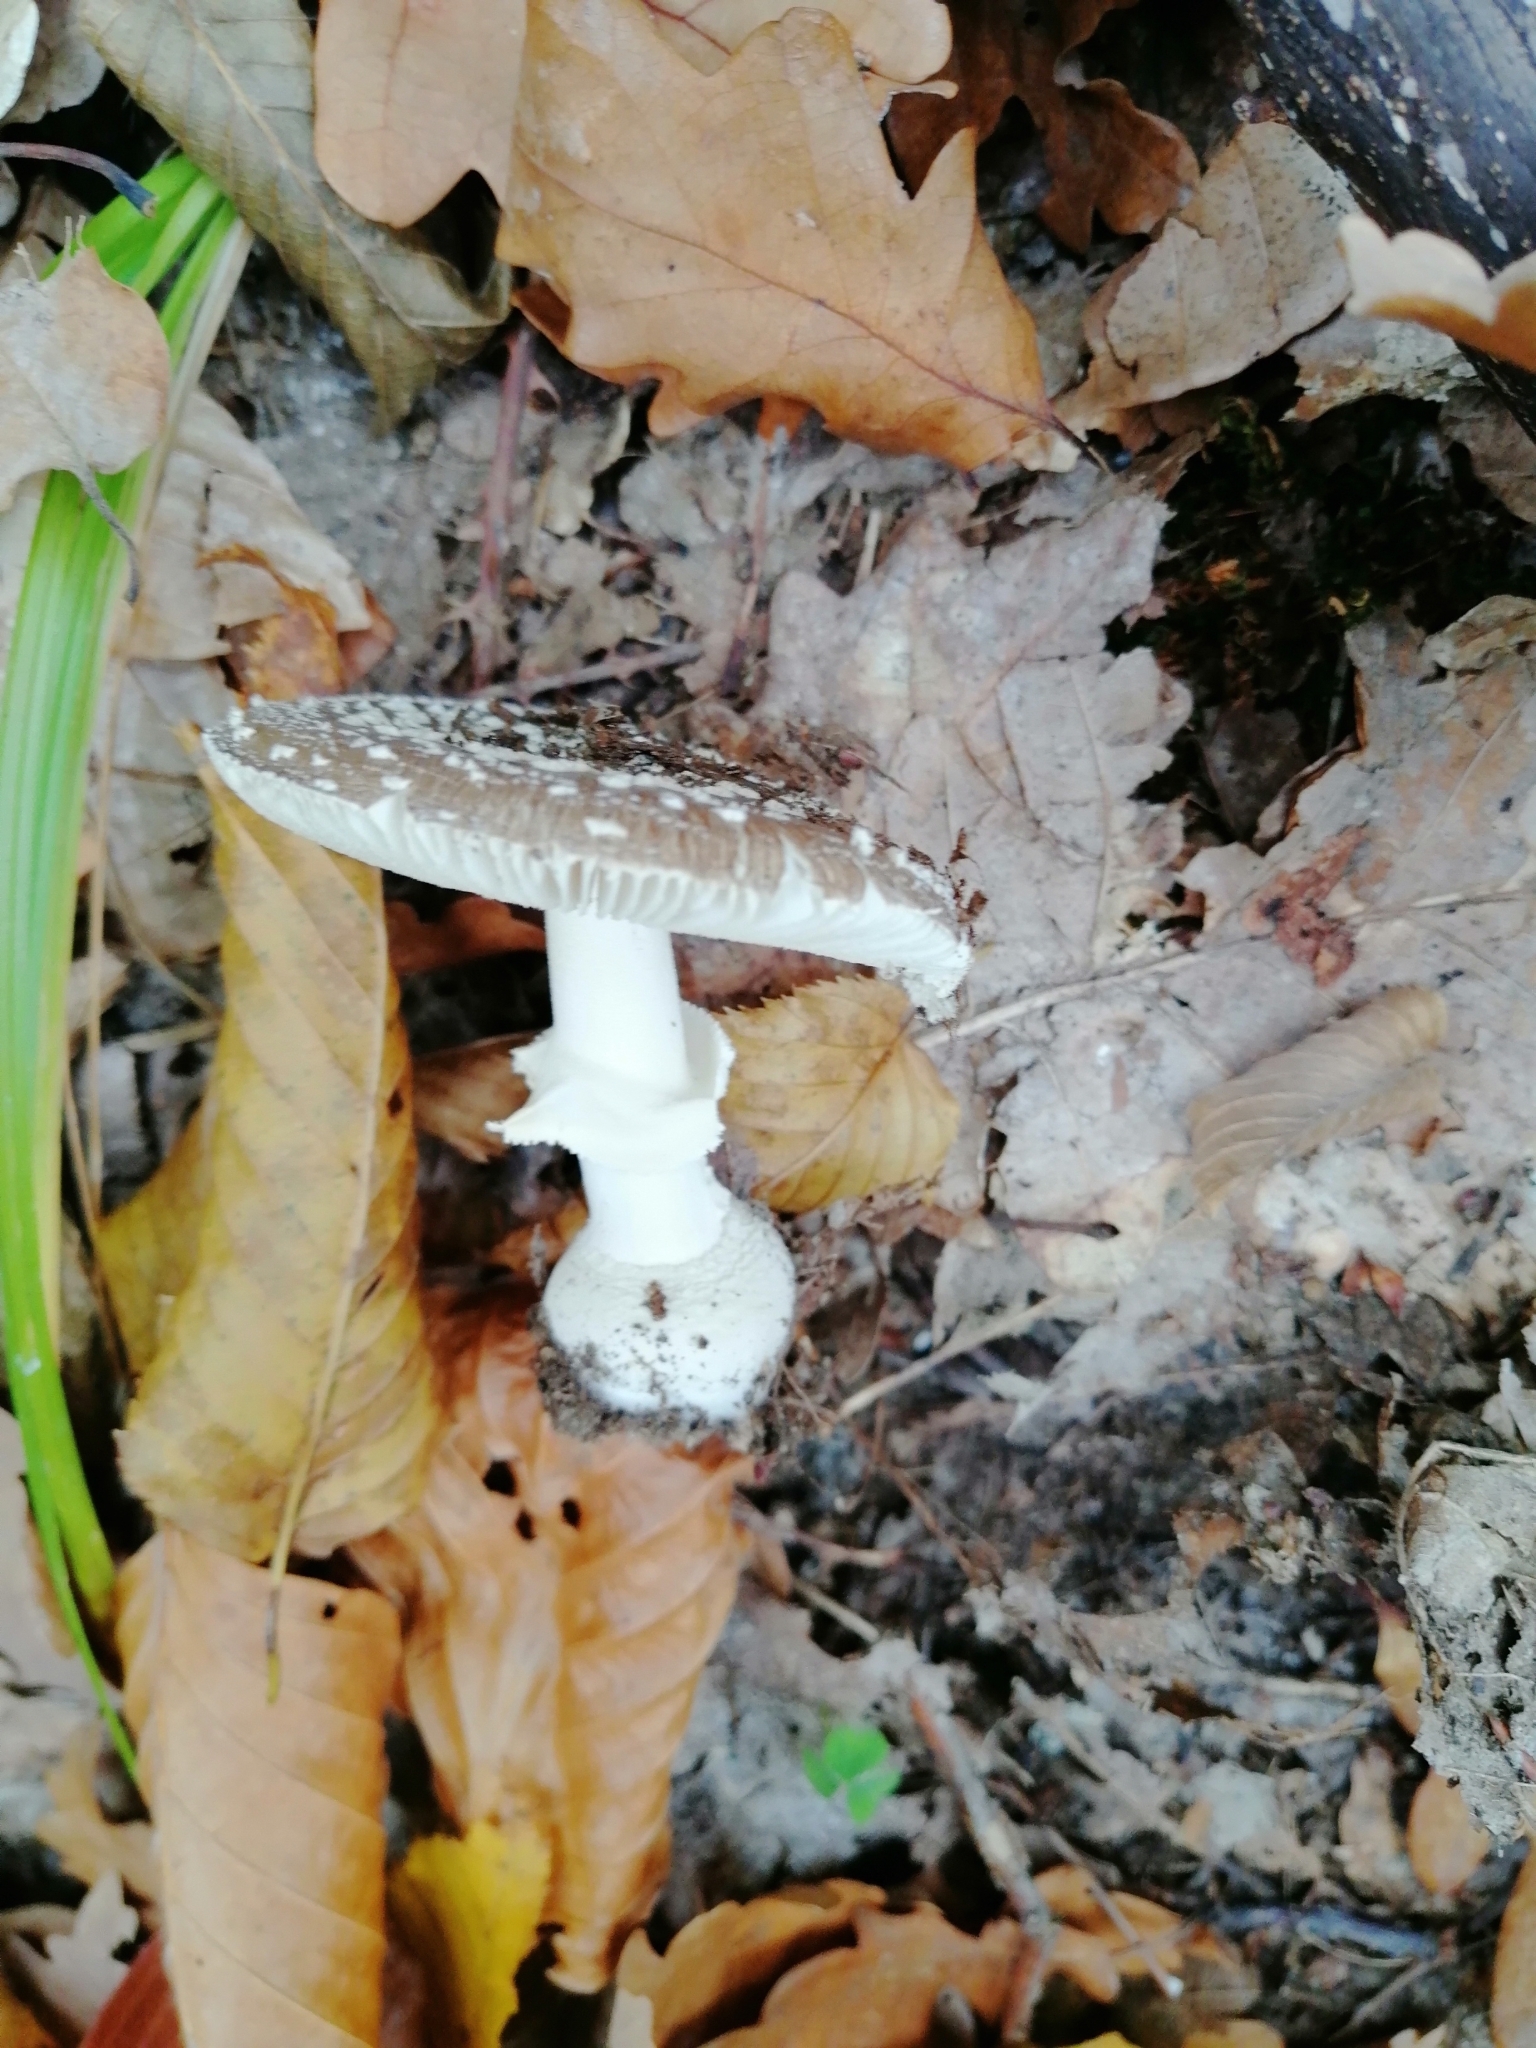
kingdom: Fungi
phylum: Basidiomycota
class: Agaricomycetes
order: Agaricales
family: Amanitaceae
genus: Amanita
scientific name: Amanita pantherina
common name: Panthercap
